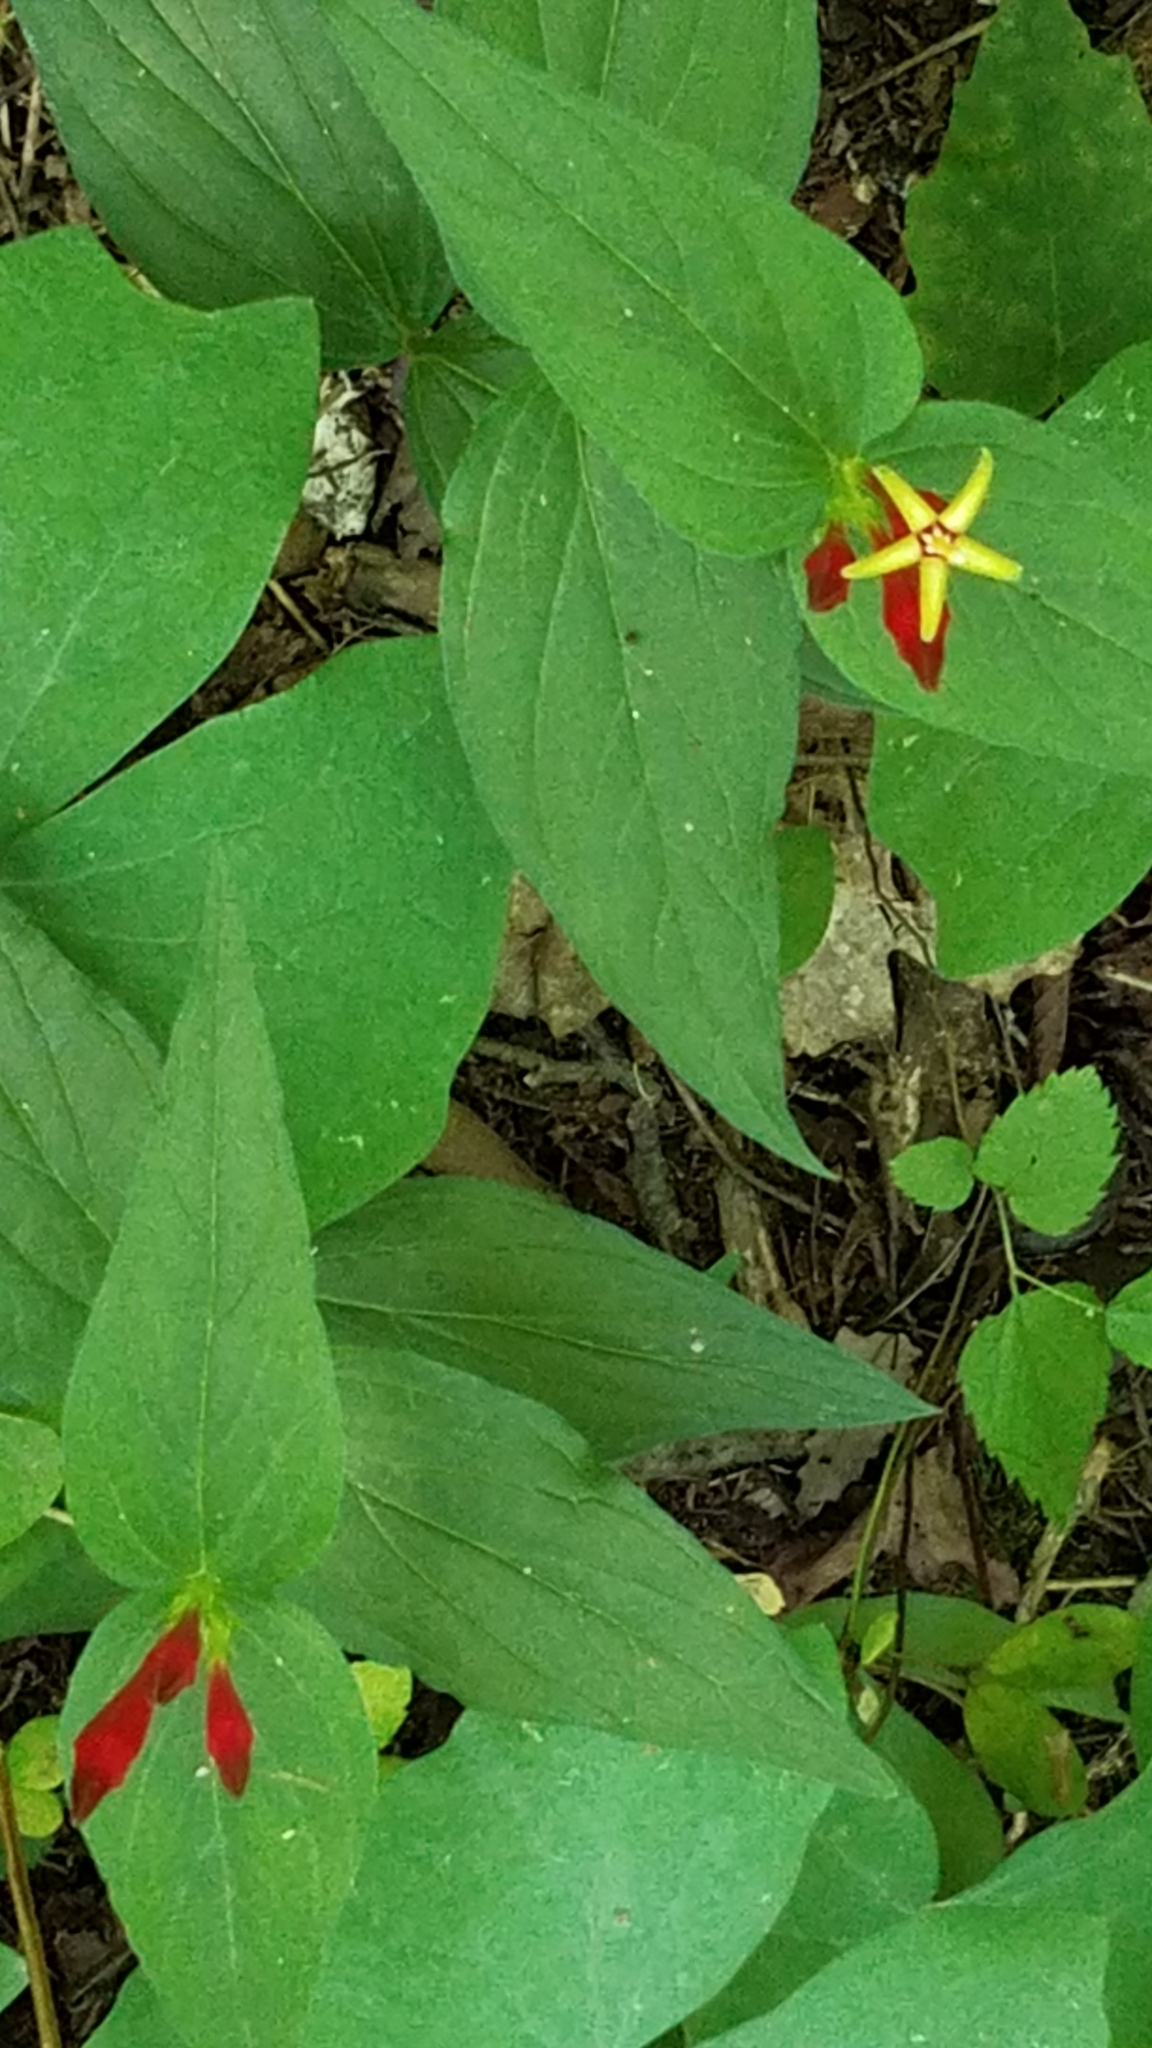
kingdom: Plantae
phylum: Tracheophyta
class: Magnoliopsida
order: Gentianales
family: Loganiaceae
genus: Spigelia
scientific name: Spigelia marilandica
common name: Indian-pink
